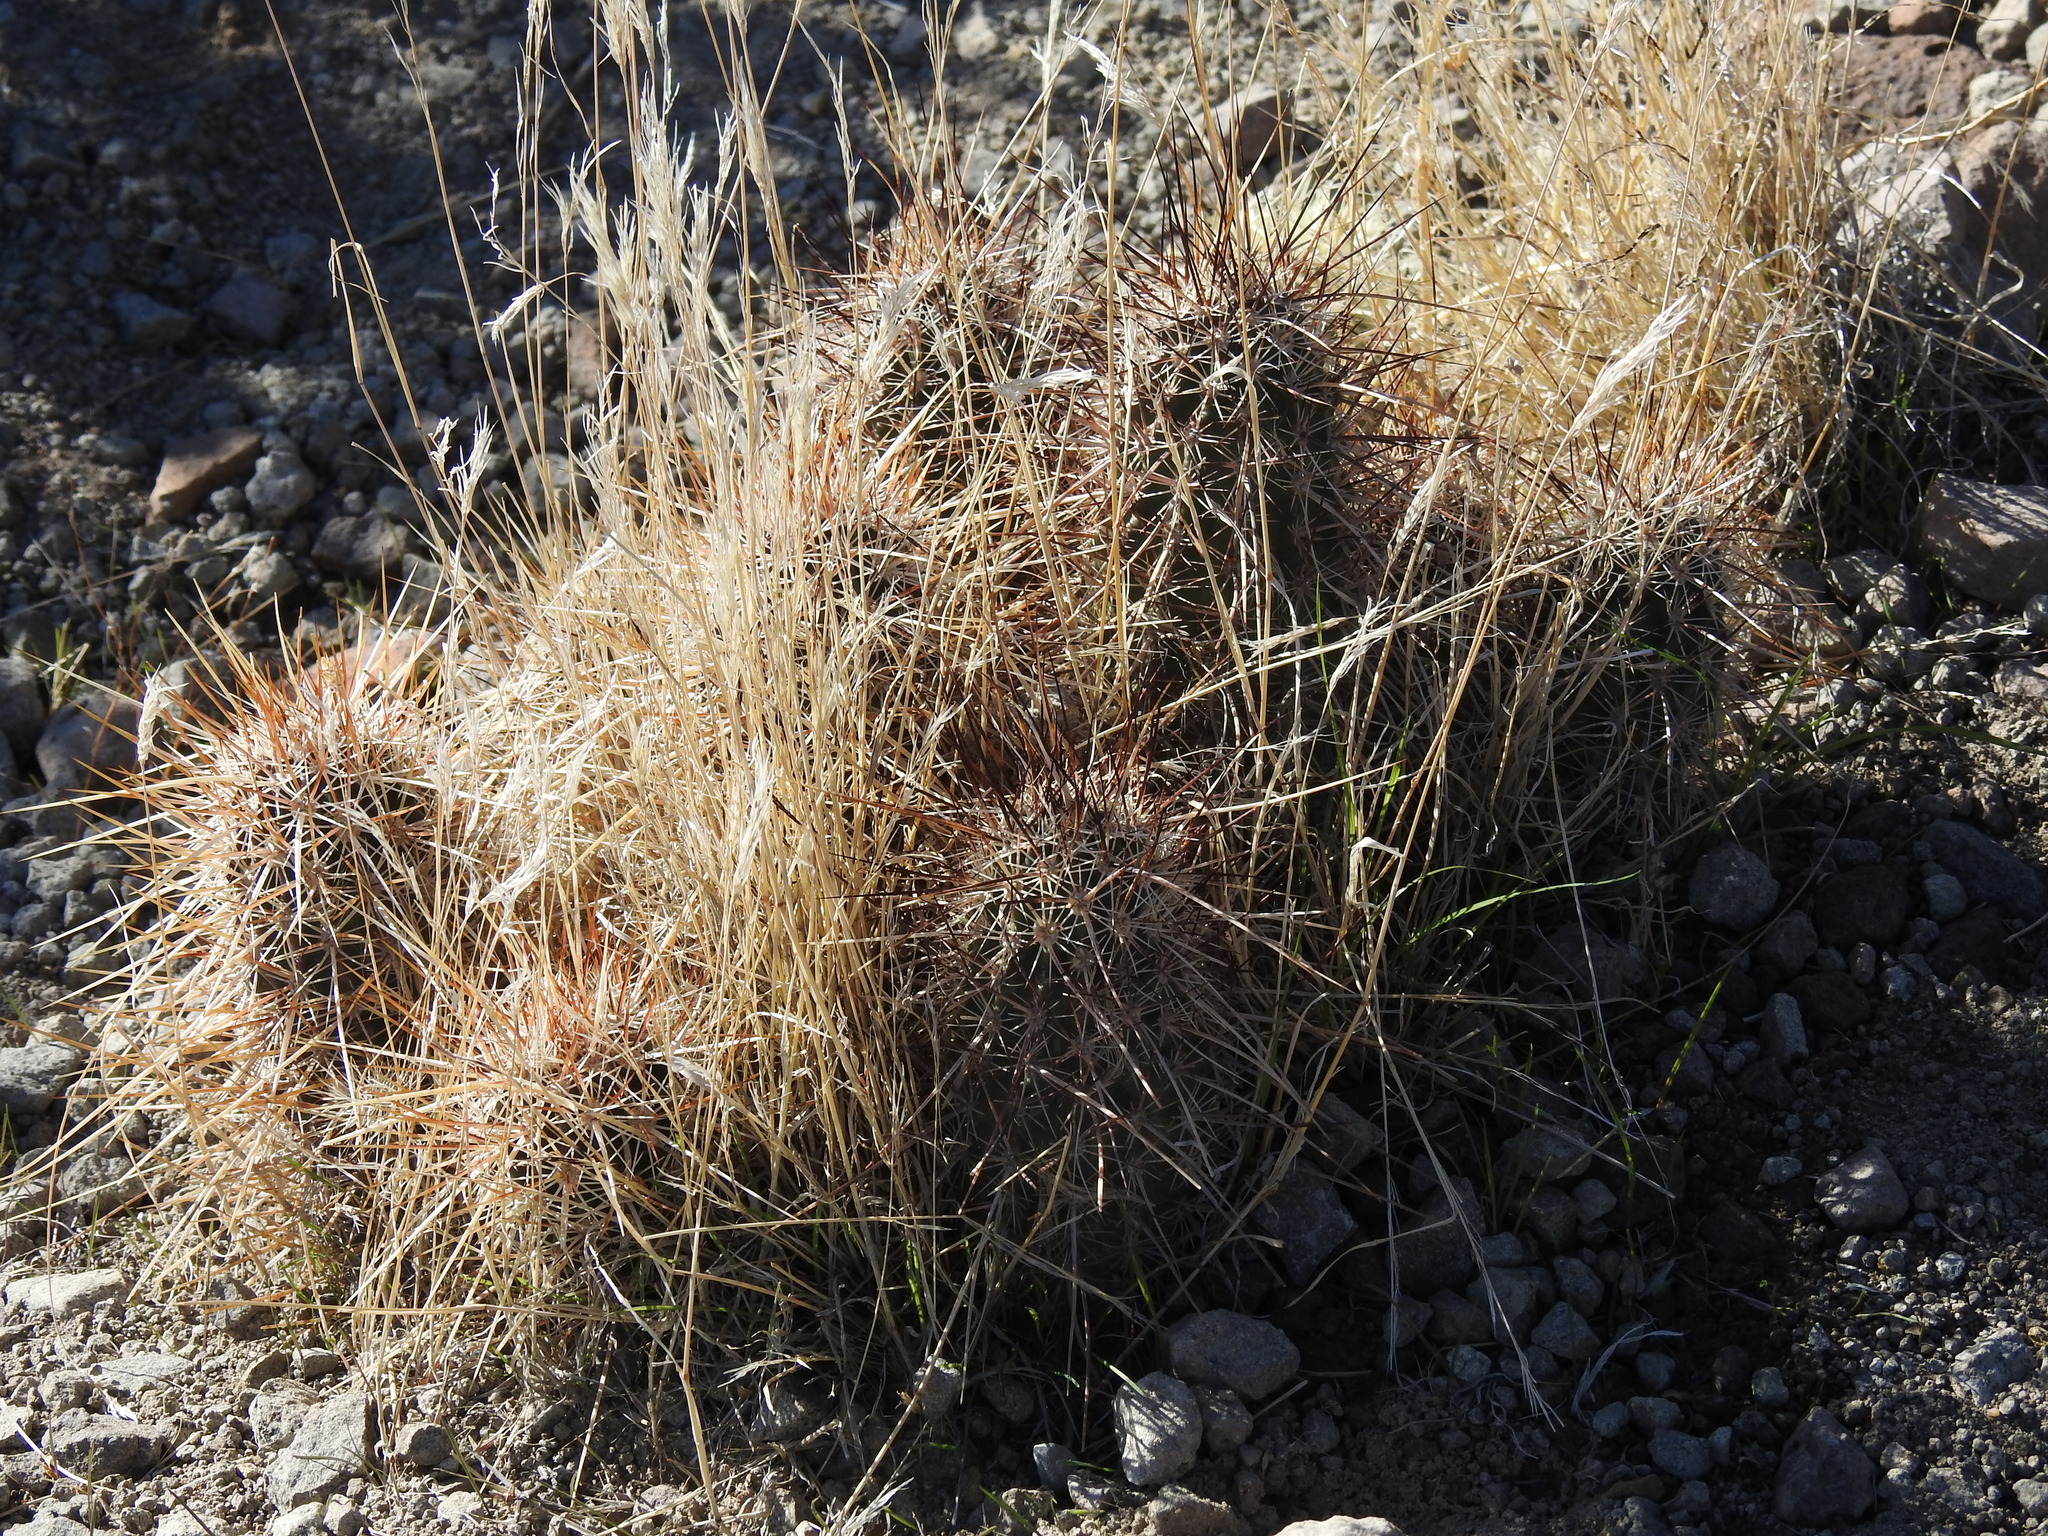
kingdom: Plantae
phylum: Tracheophyta
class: Magnoliopsida
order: Caryophyllales
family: Cactaceae
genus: Echinocereus
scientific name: Echinocereus engelmannii
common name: Engelmann's hedgehog cactus
